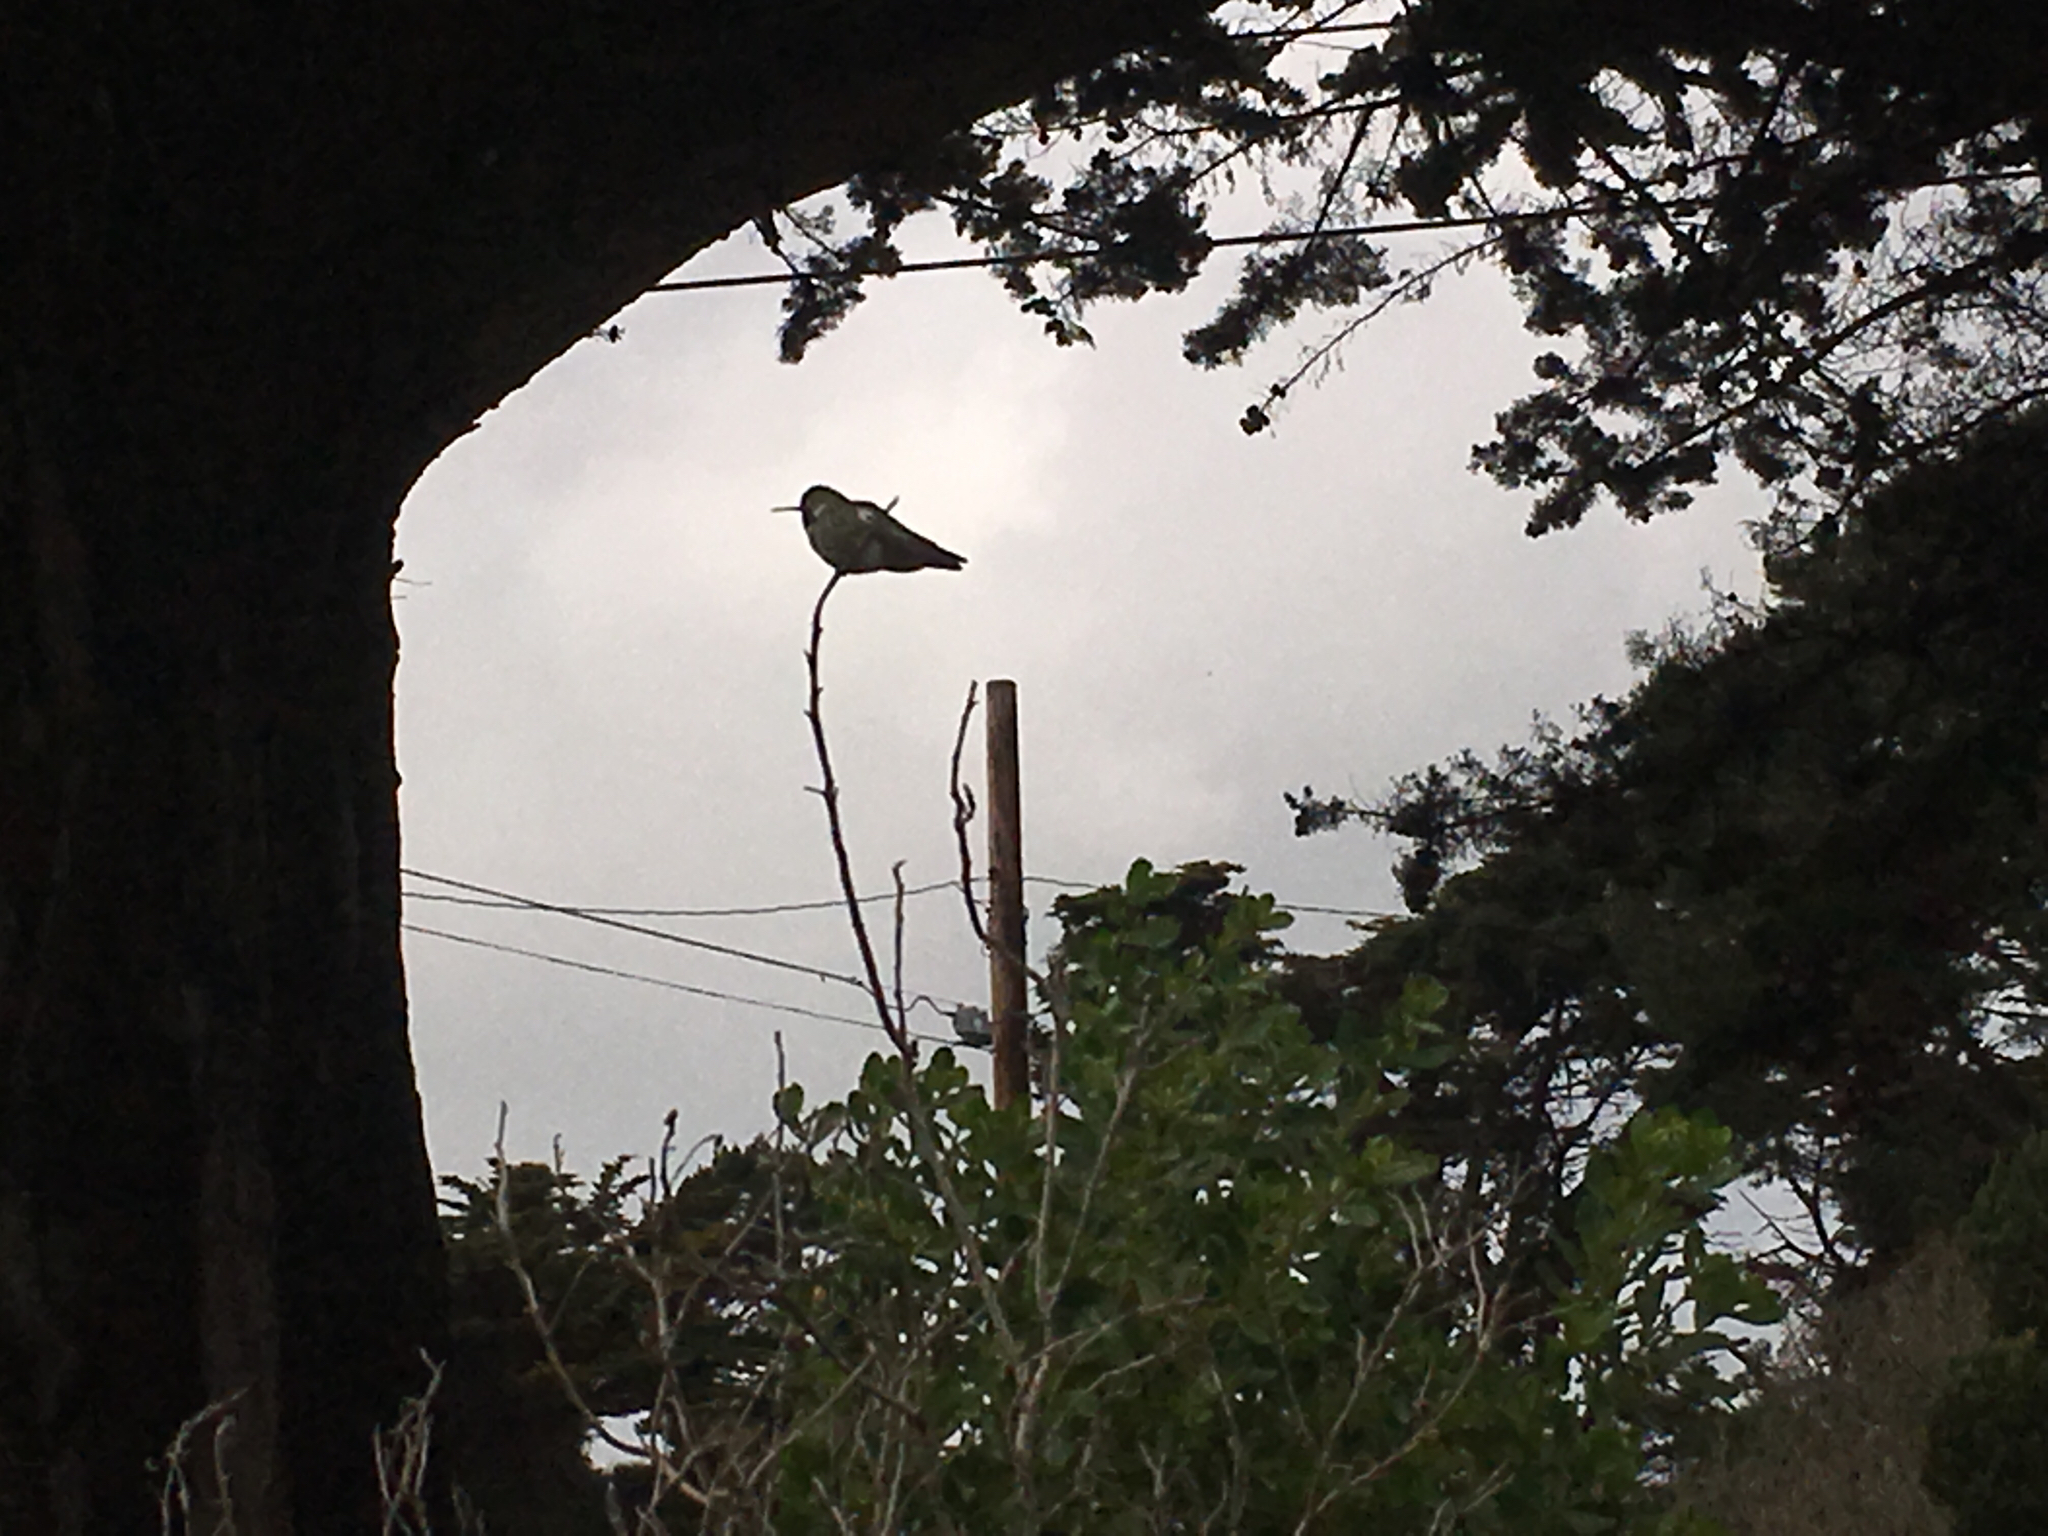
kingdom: Animalia
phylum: Chordata
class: Aves
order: Apodiformes
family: Trochilidae
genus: Calypte
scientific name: Calypte anna
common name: Anna's hummingbird
